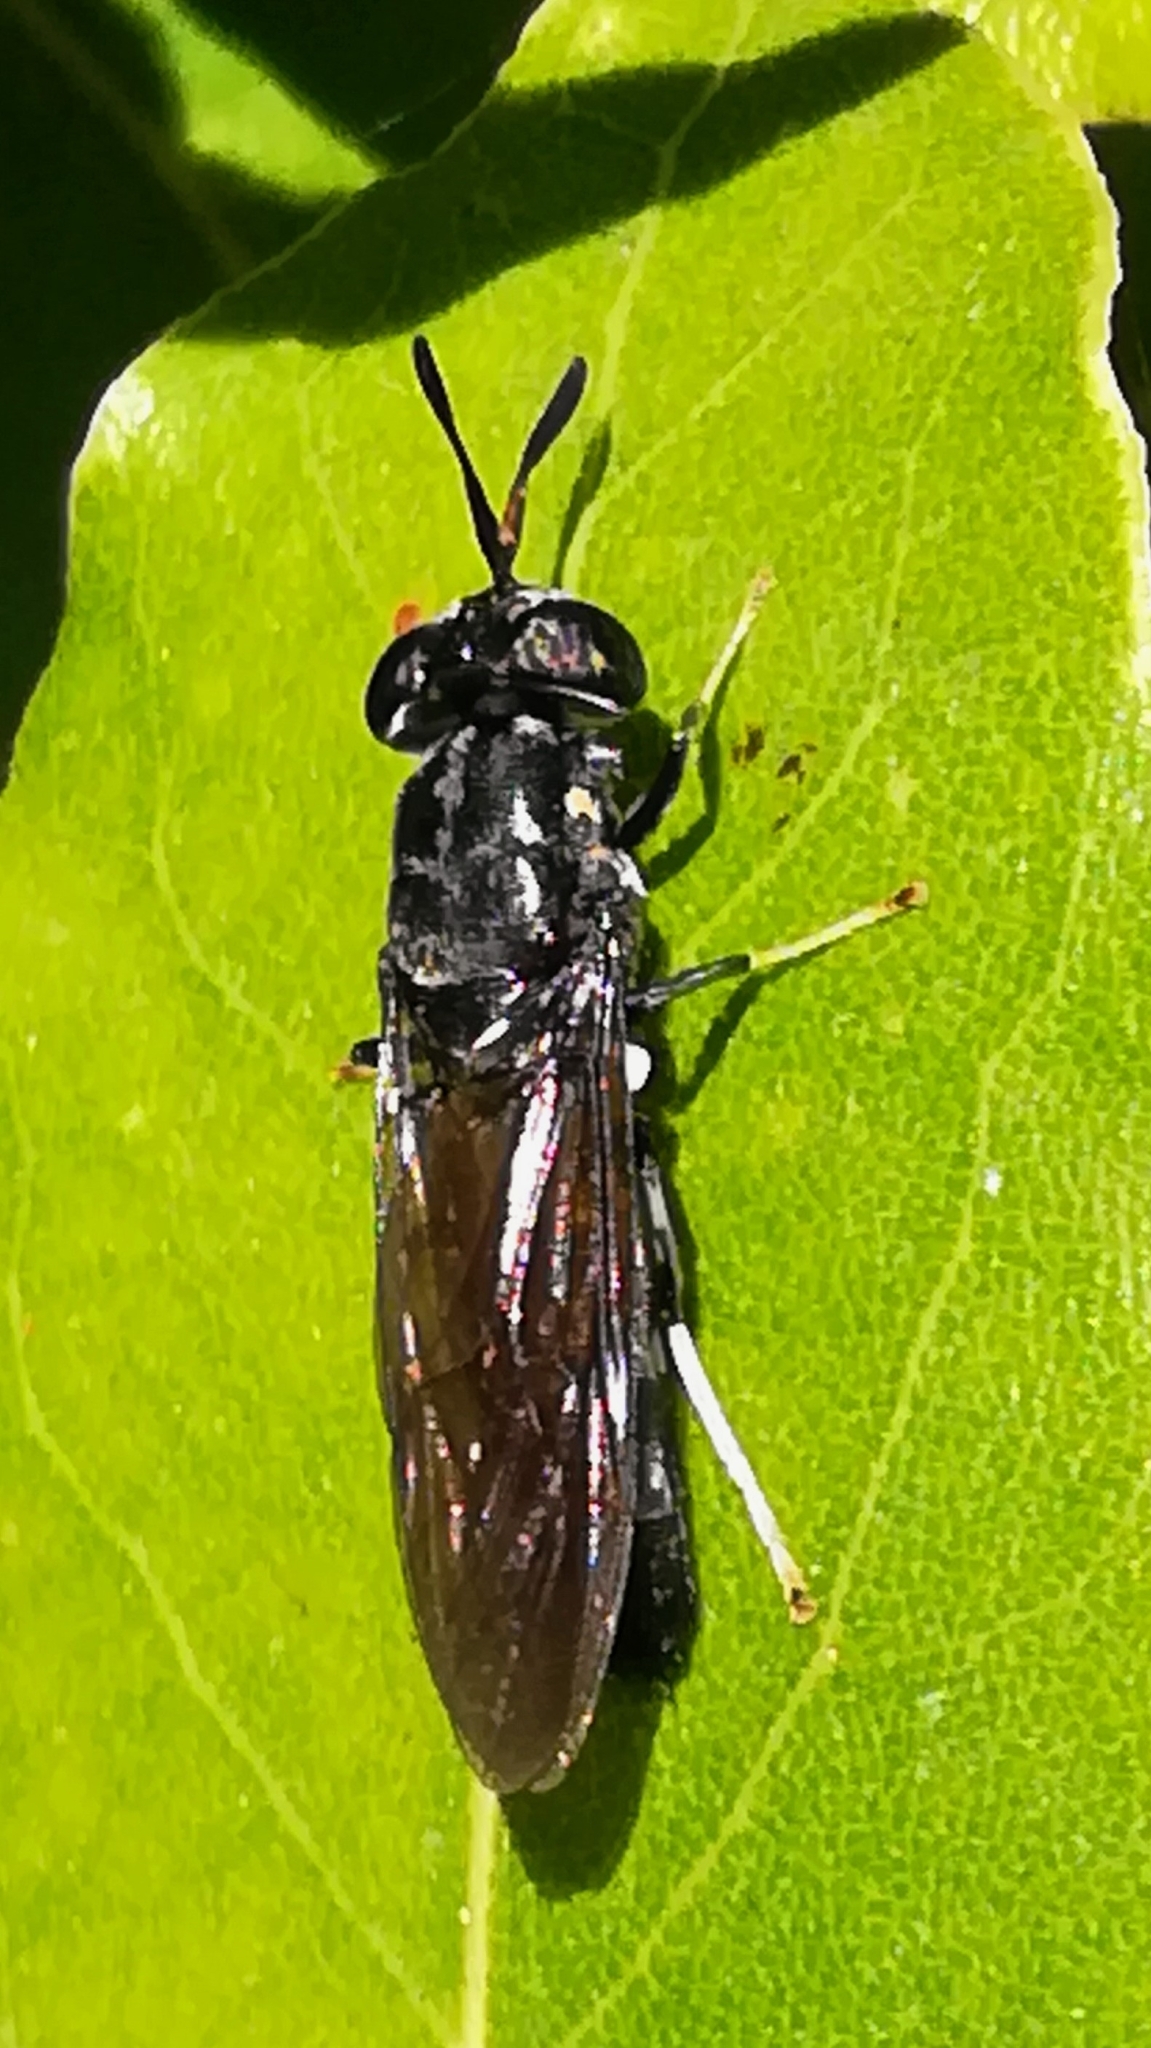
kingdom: Animalia
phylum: Arthropoda
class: Insecta
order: Diptera
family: Stratiomyidae
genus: Hermetia
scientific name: Hermetia illucens
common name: Black soldier fly
